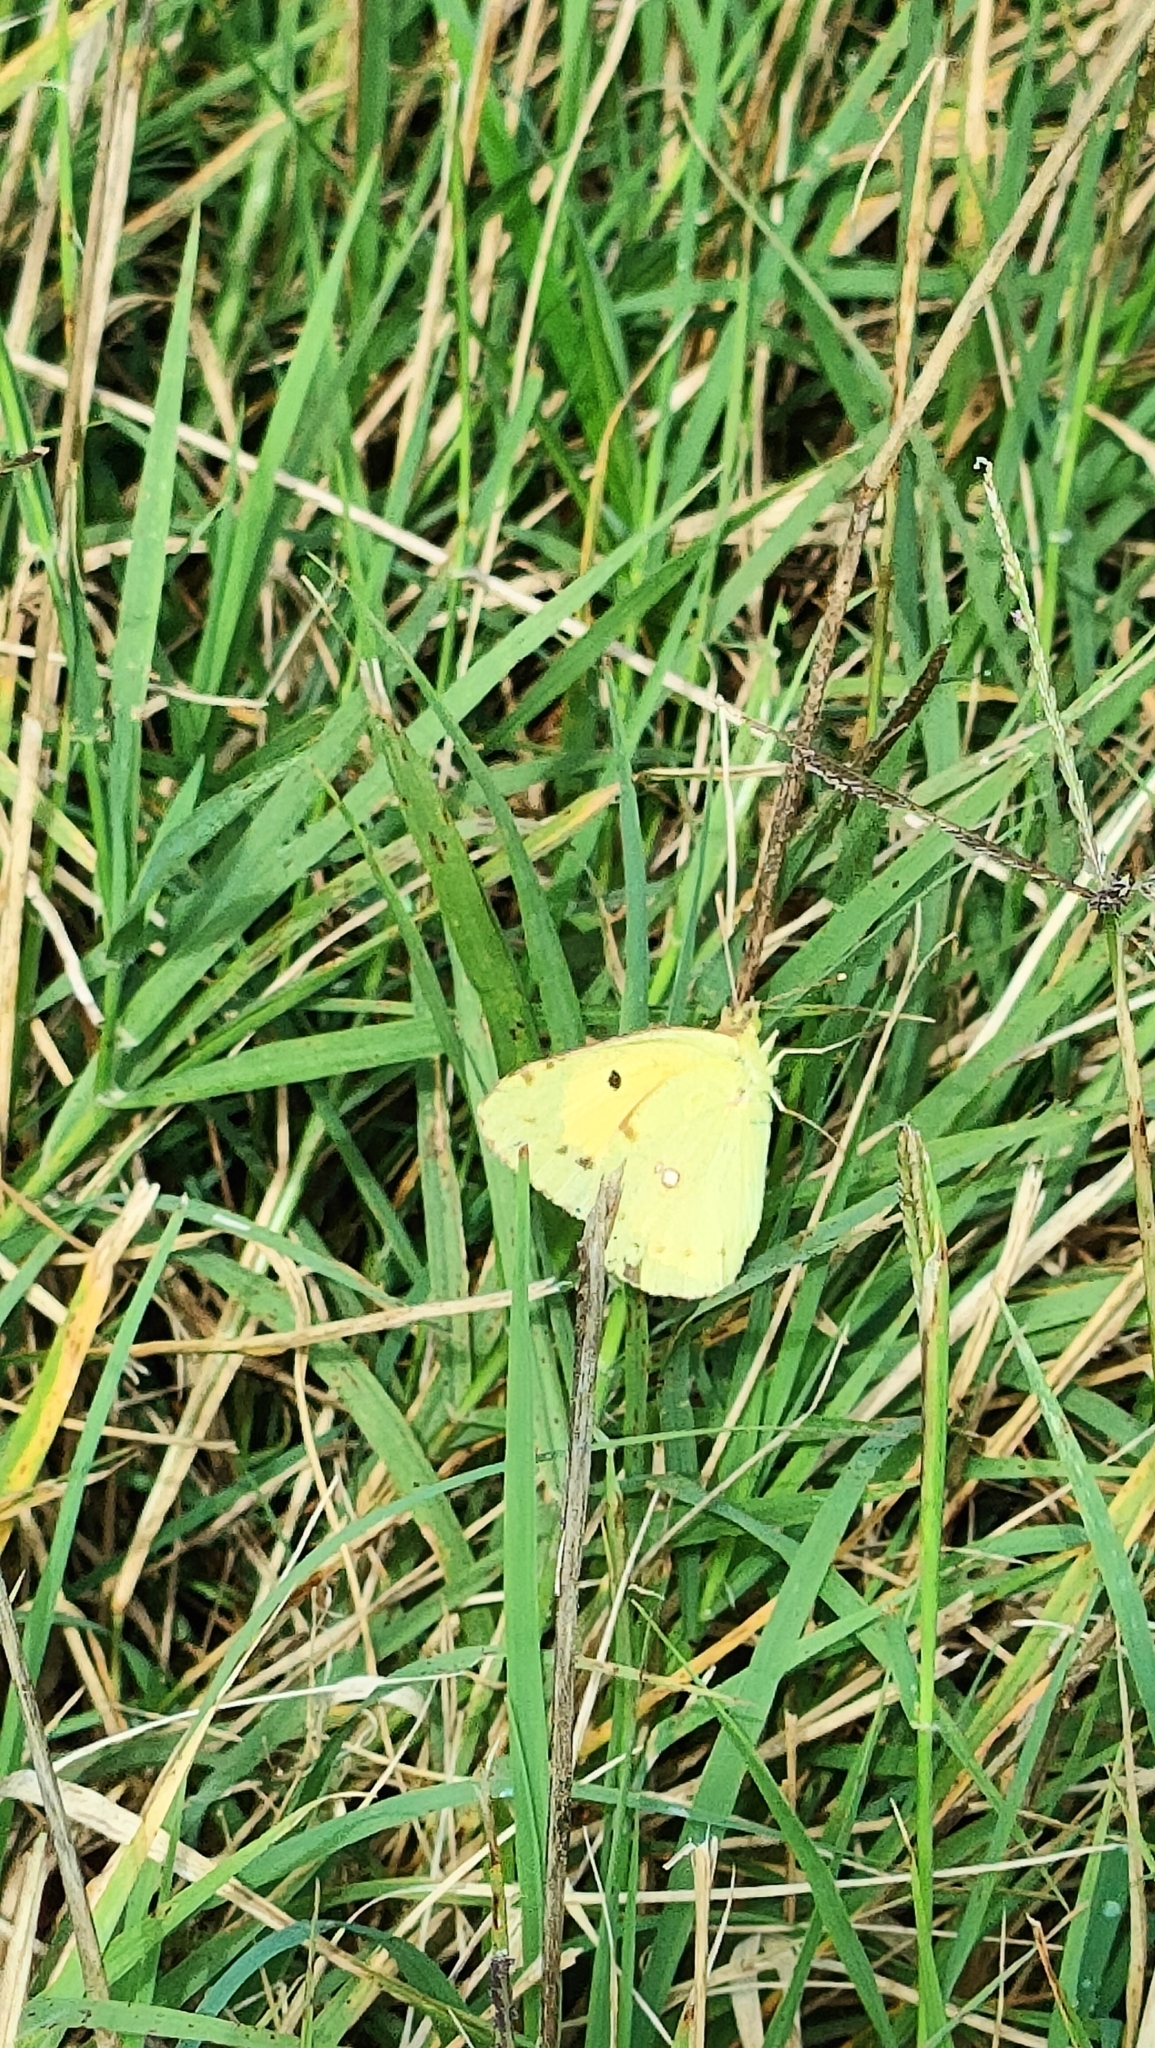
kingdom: Animalia
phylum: Arthropoda
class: Insecta
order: Lepidoptera
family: Pieridae
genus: Colias
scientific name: Colias croceus
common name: Clouded yellow
